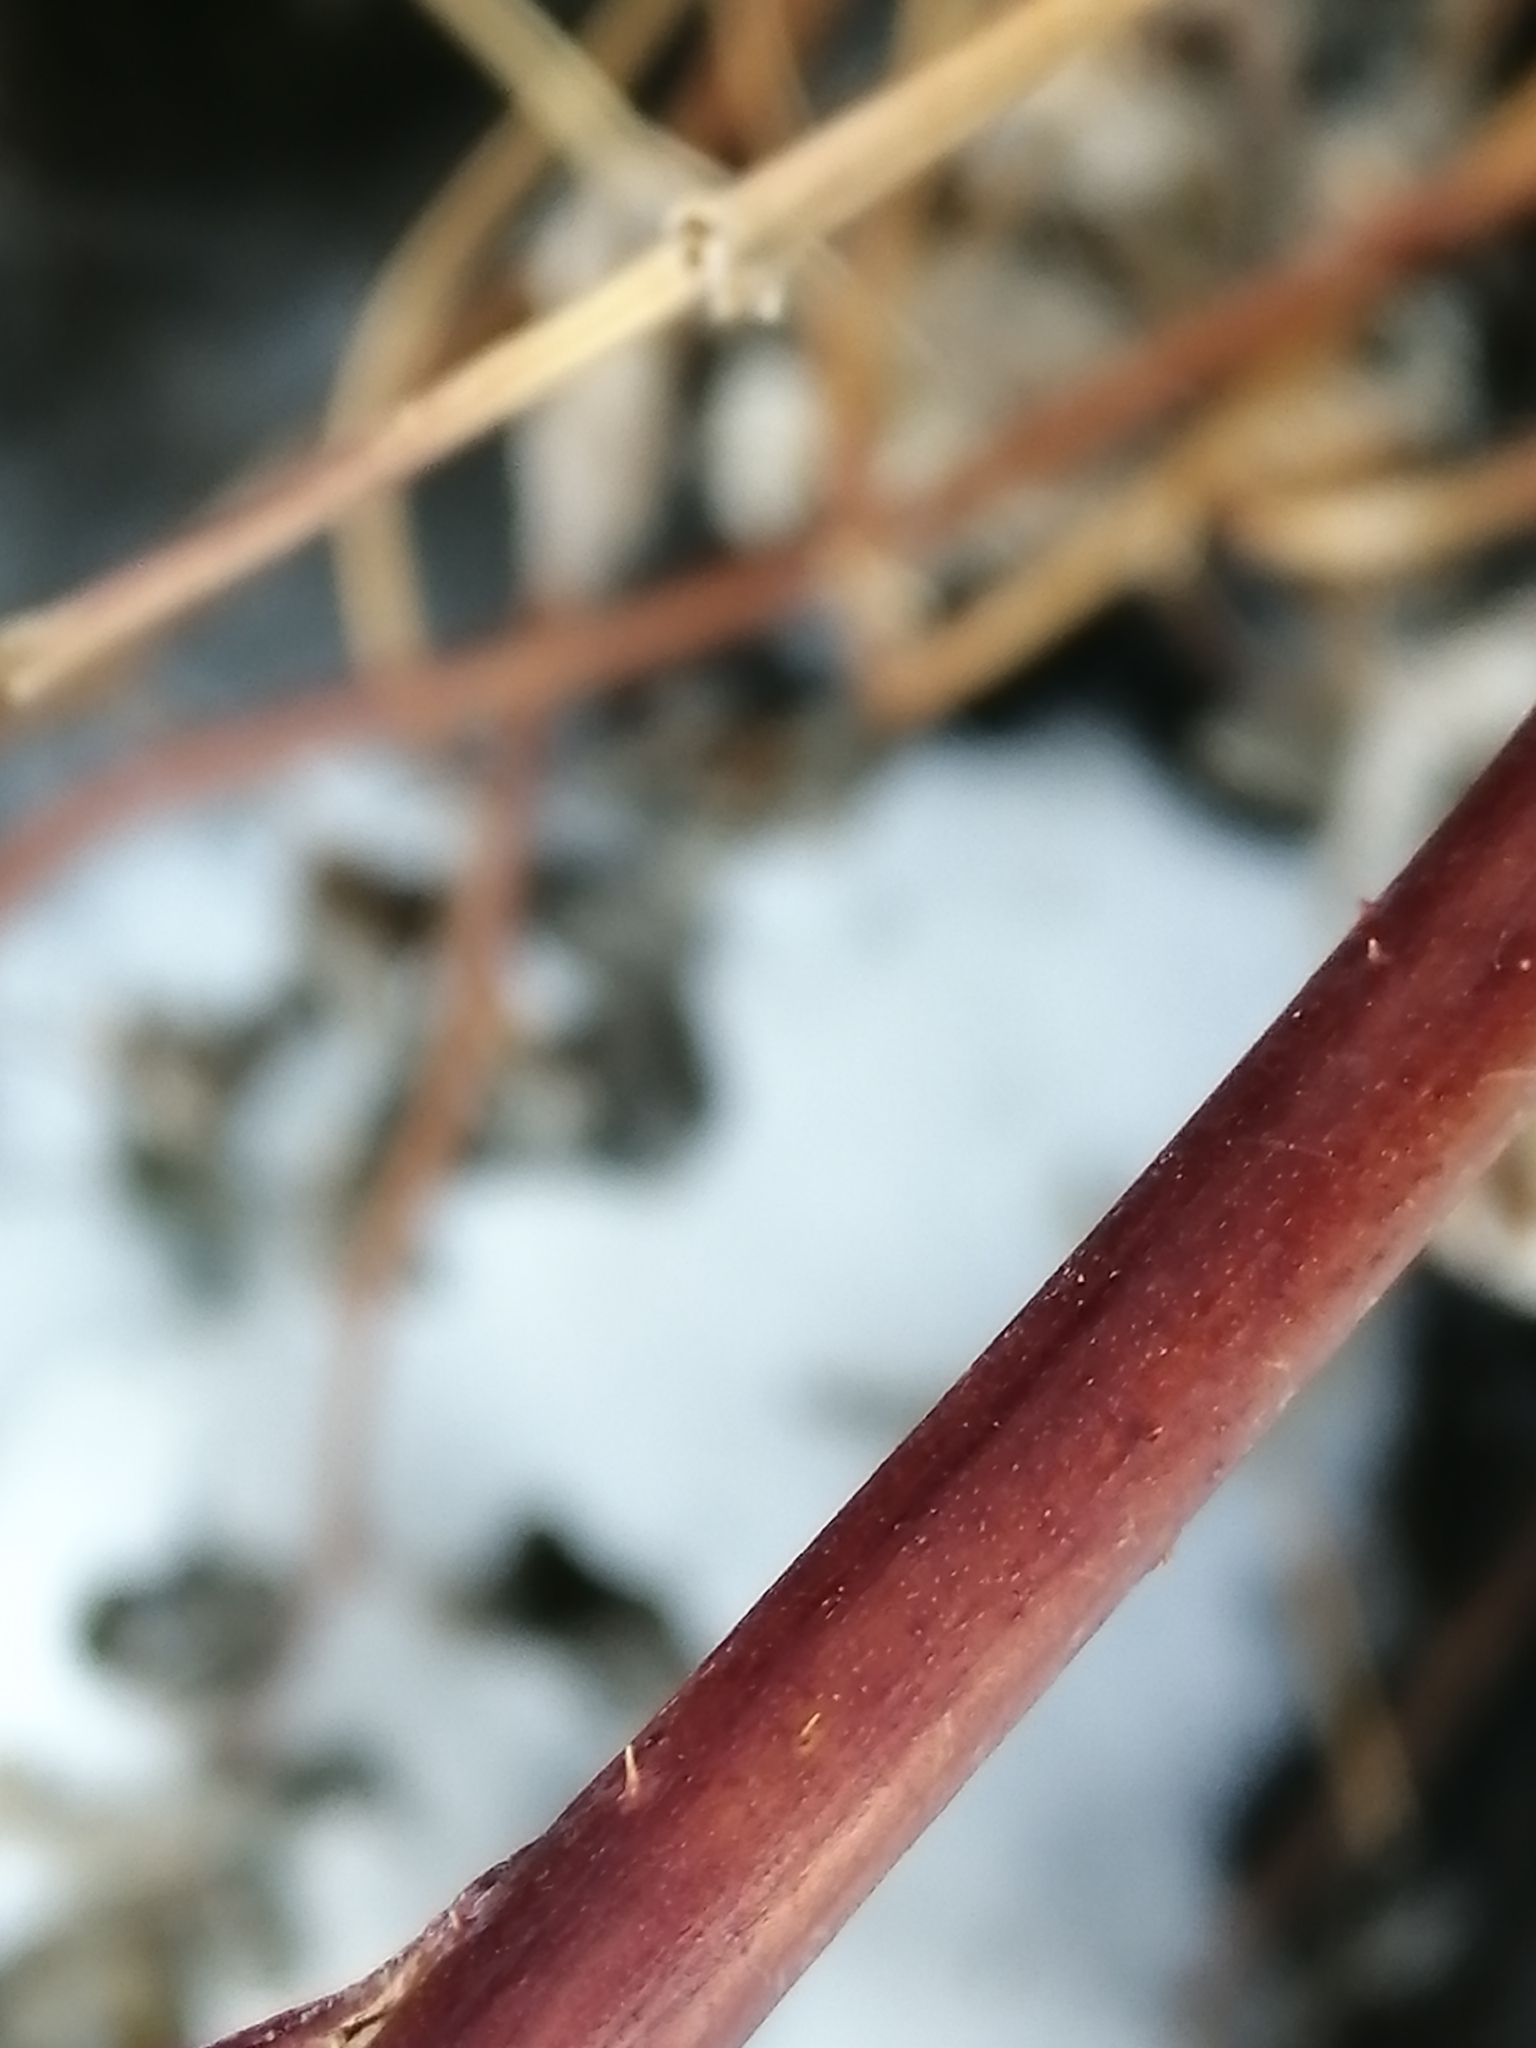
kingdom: Plantae
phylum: Tracheophyta
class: Magnoliopsida
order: Rosales
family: Rosaceae
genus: Rubus
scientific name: Rubus idaeus
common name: Raspberry
